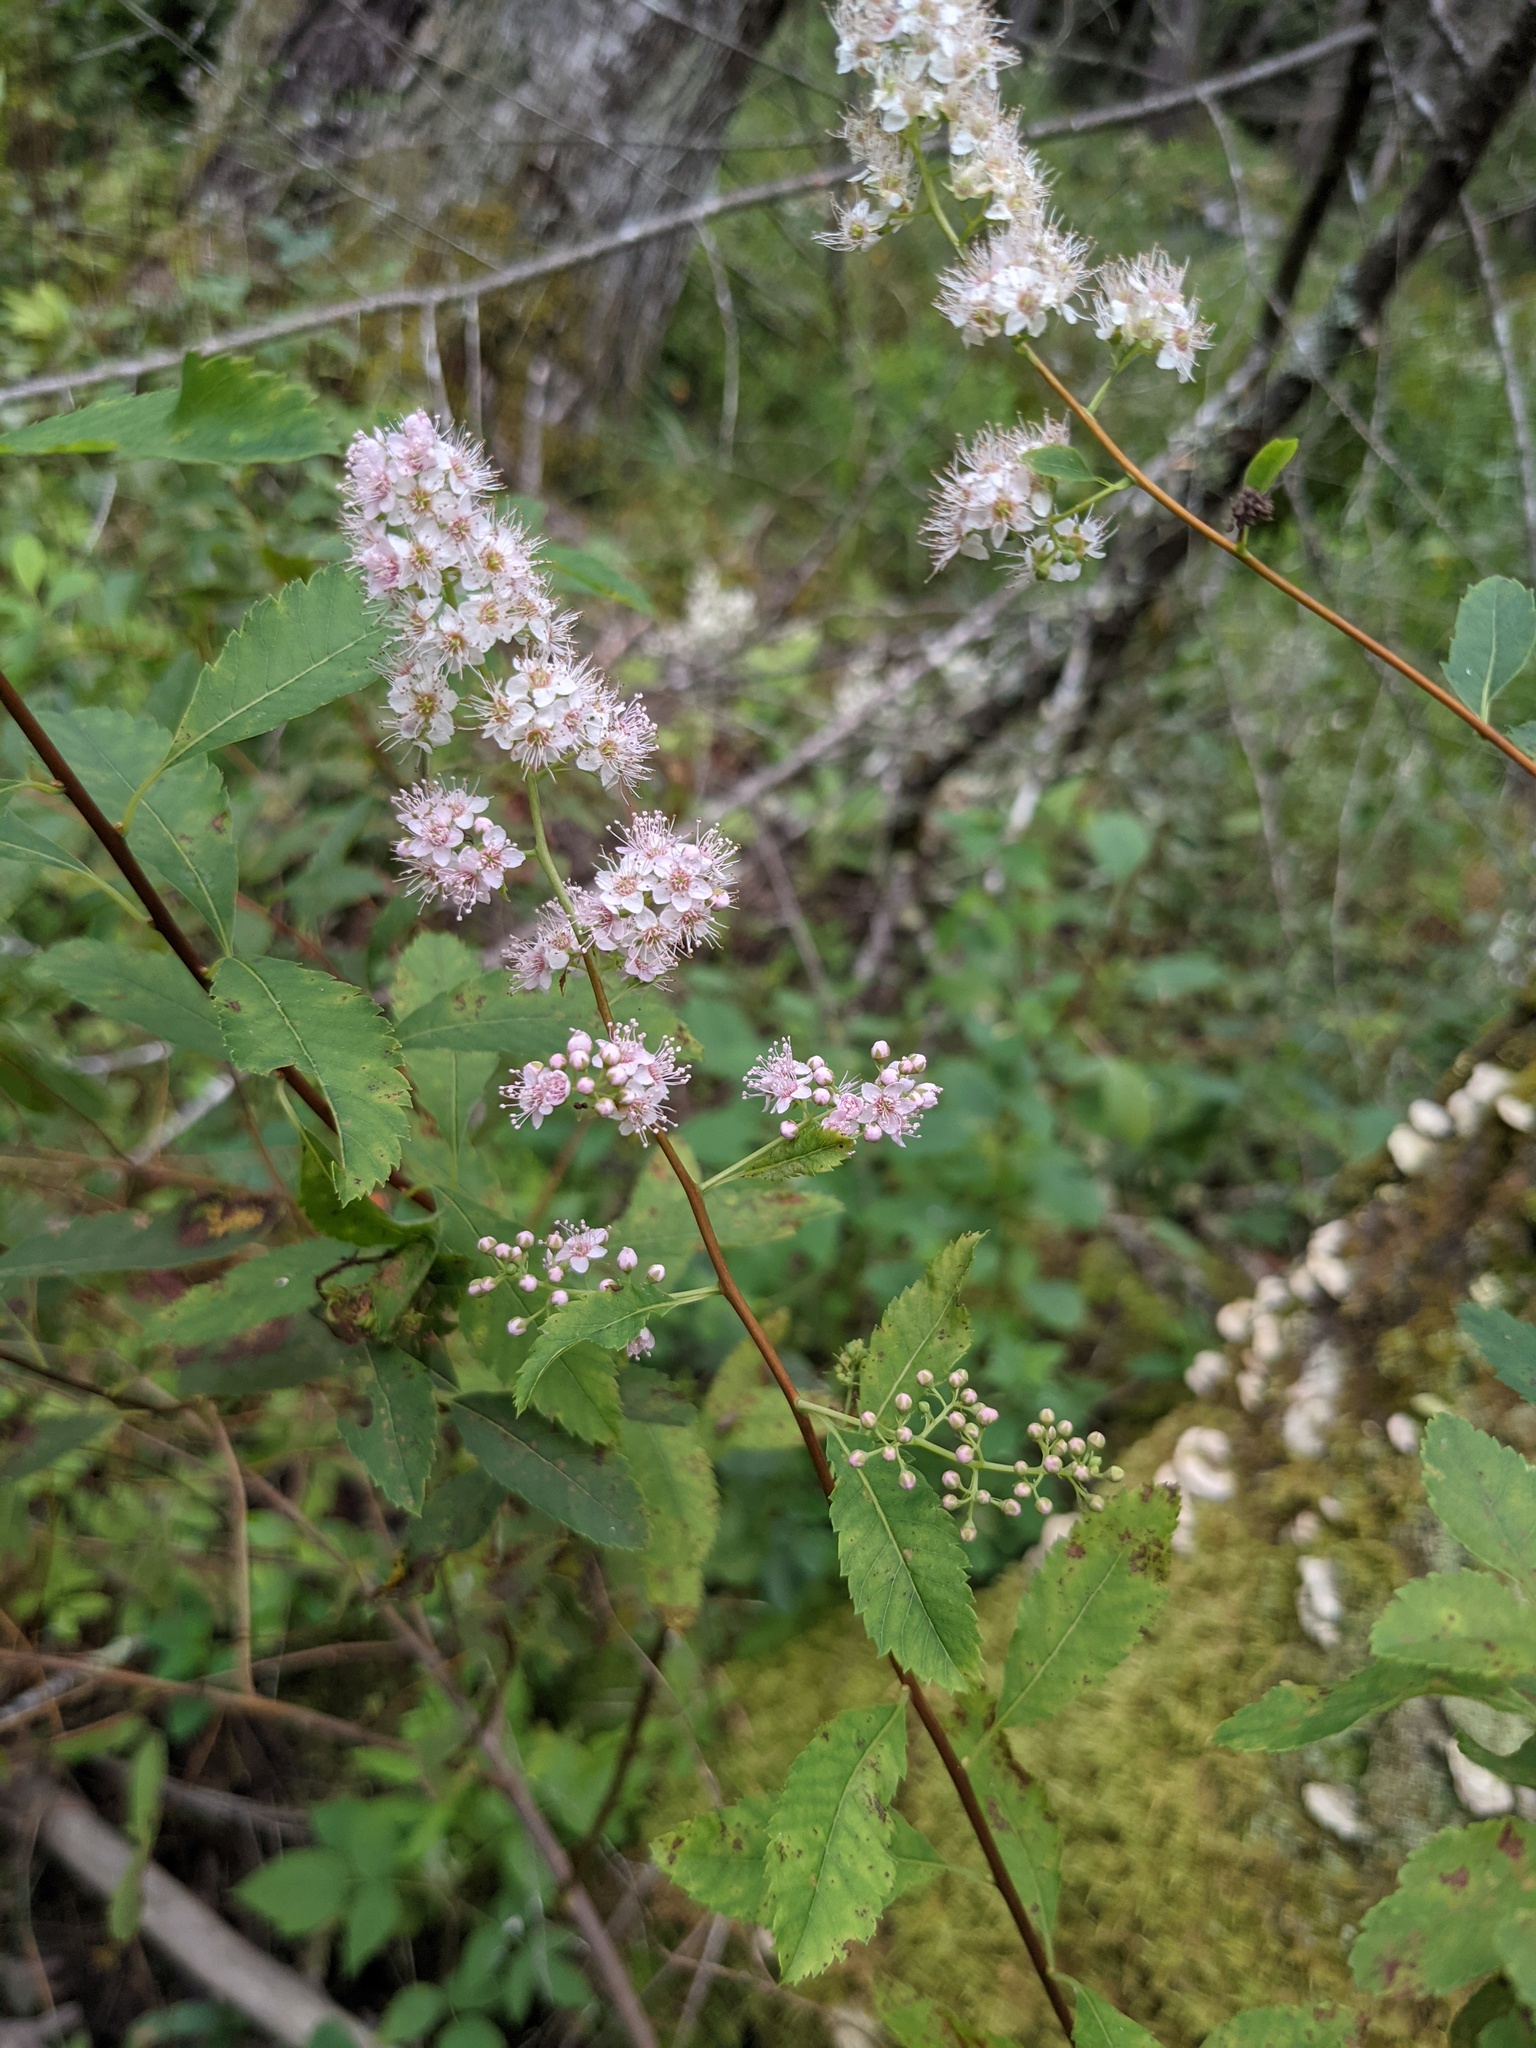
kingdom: Plantae
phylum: Tracheophyta
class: Magnoliopsida
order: Rosales
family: Rosaceae
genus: Spiraea
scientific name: Spiraea alba
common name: Pale bridewort
